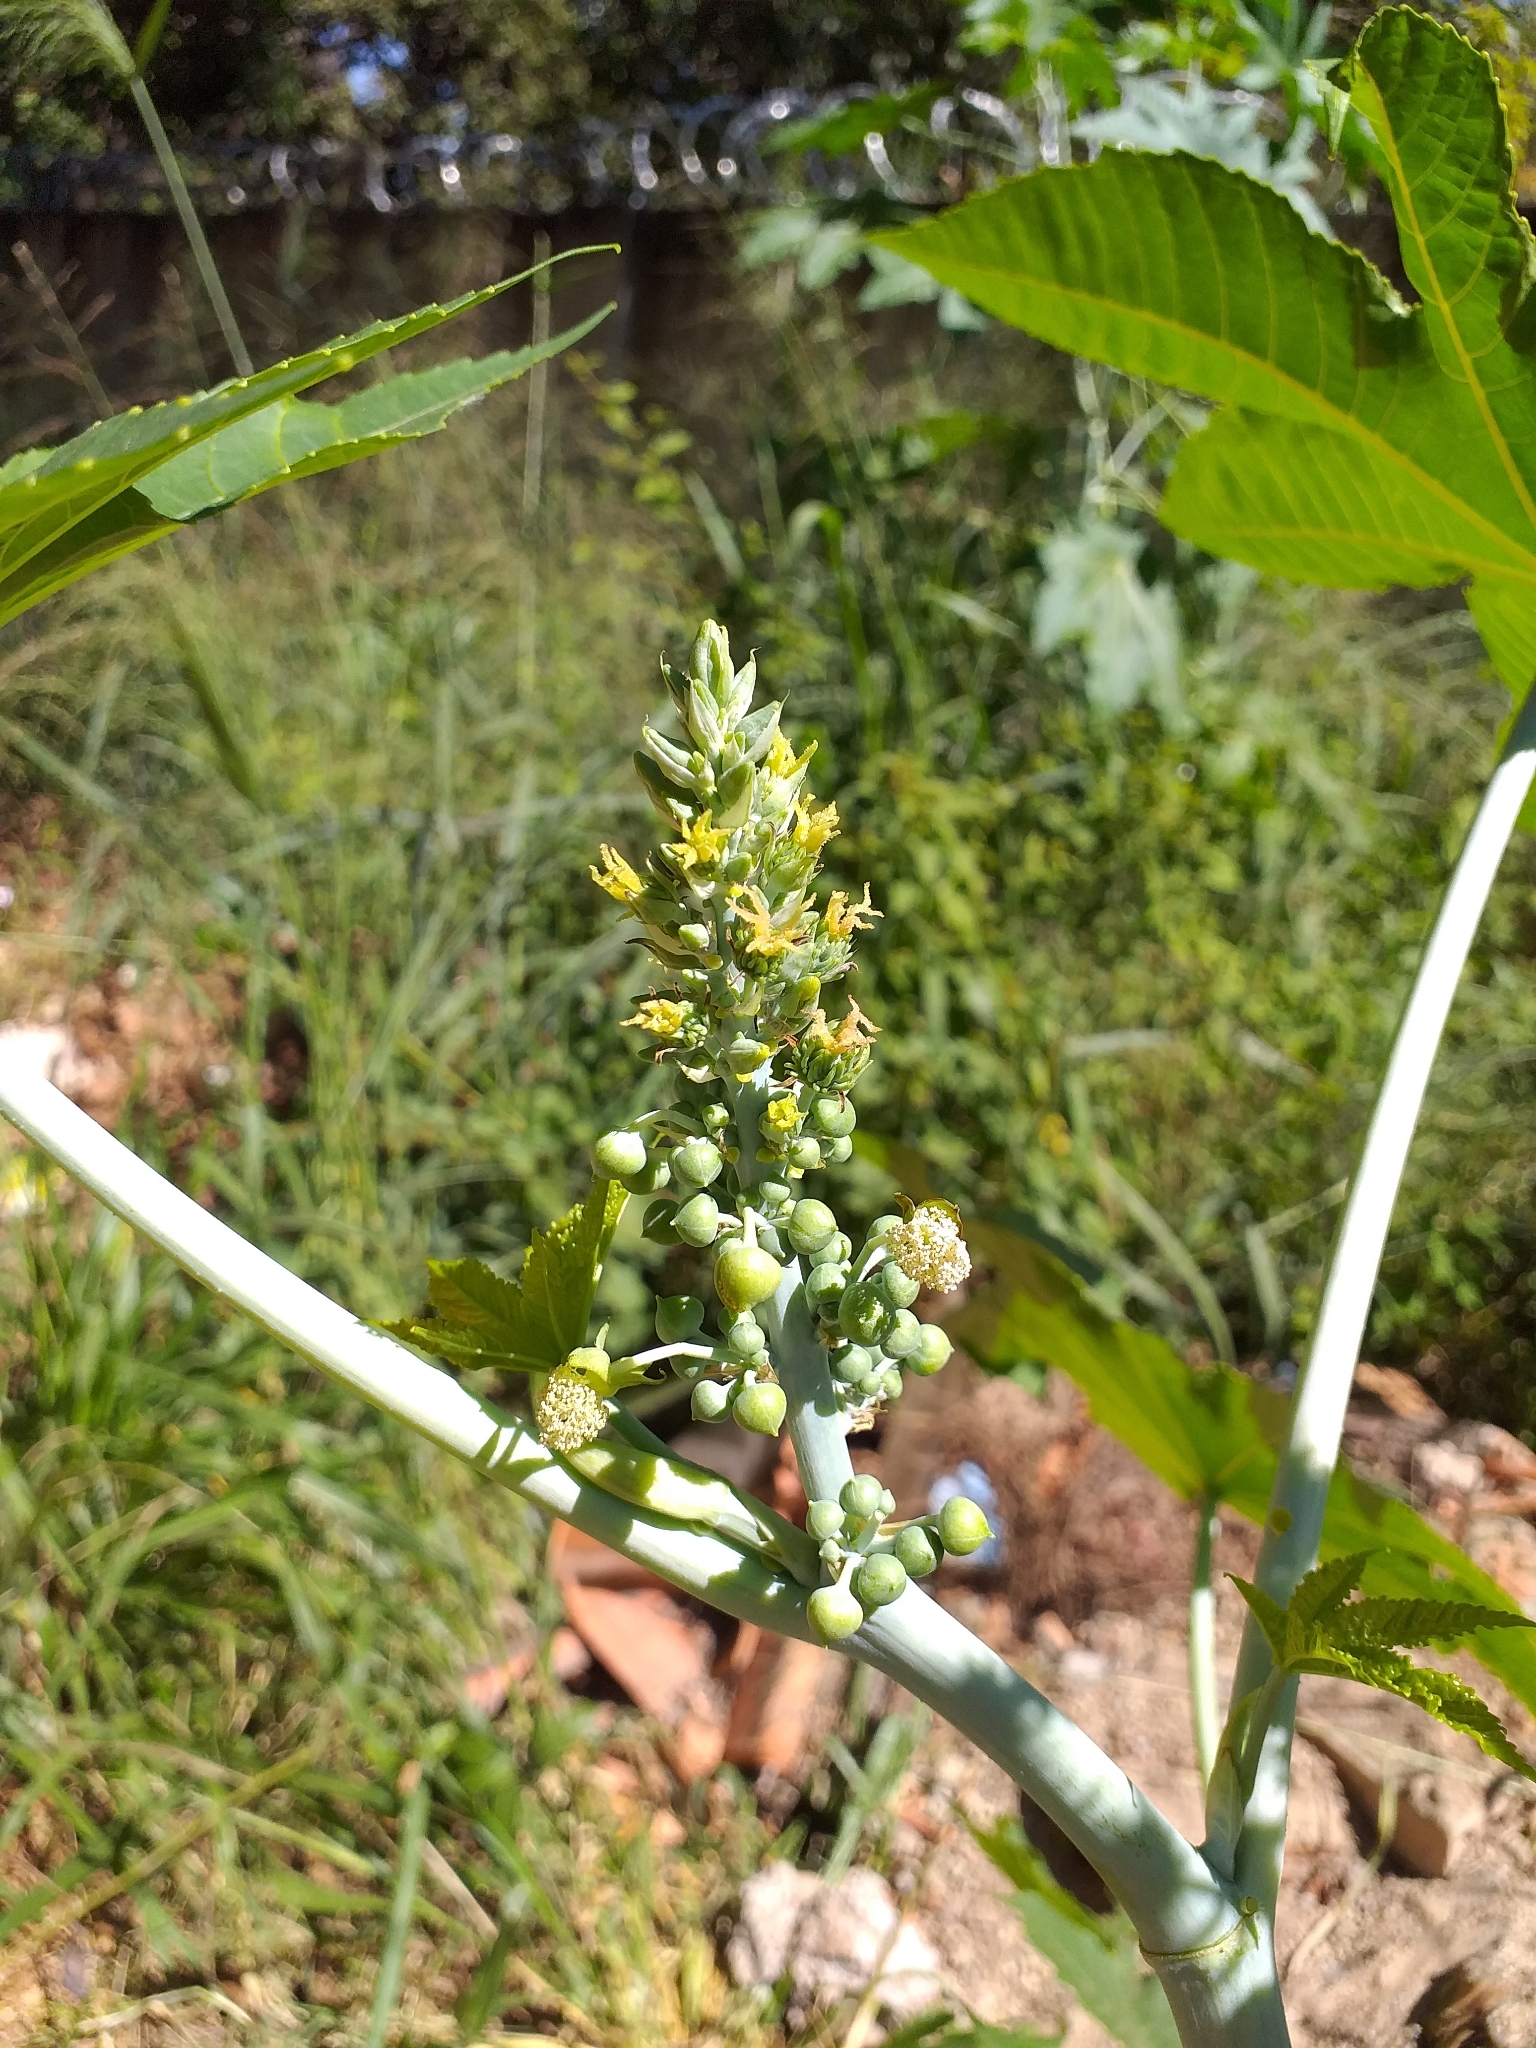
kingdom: Plantae
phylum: Tracheophyta
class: Magnoliopsida
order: Malpighiales
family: Euphorbiaceae
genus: Ricinus
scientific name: Ricinus communis
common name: Castor-oil-plant
